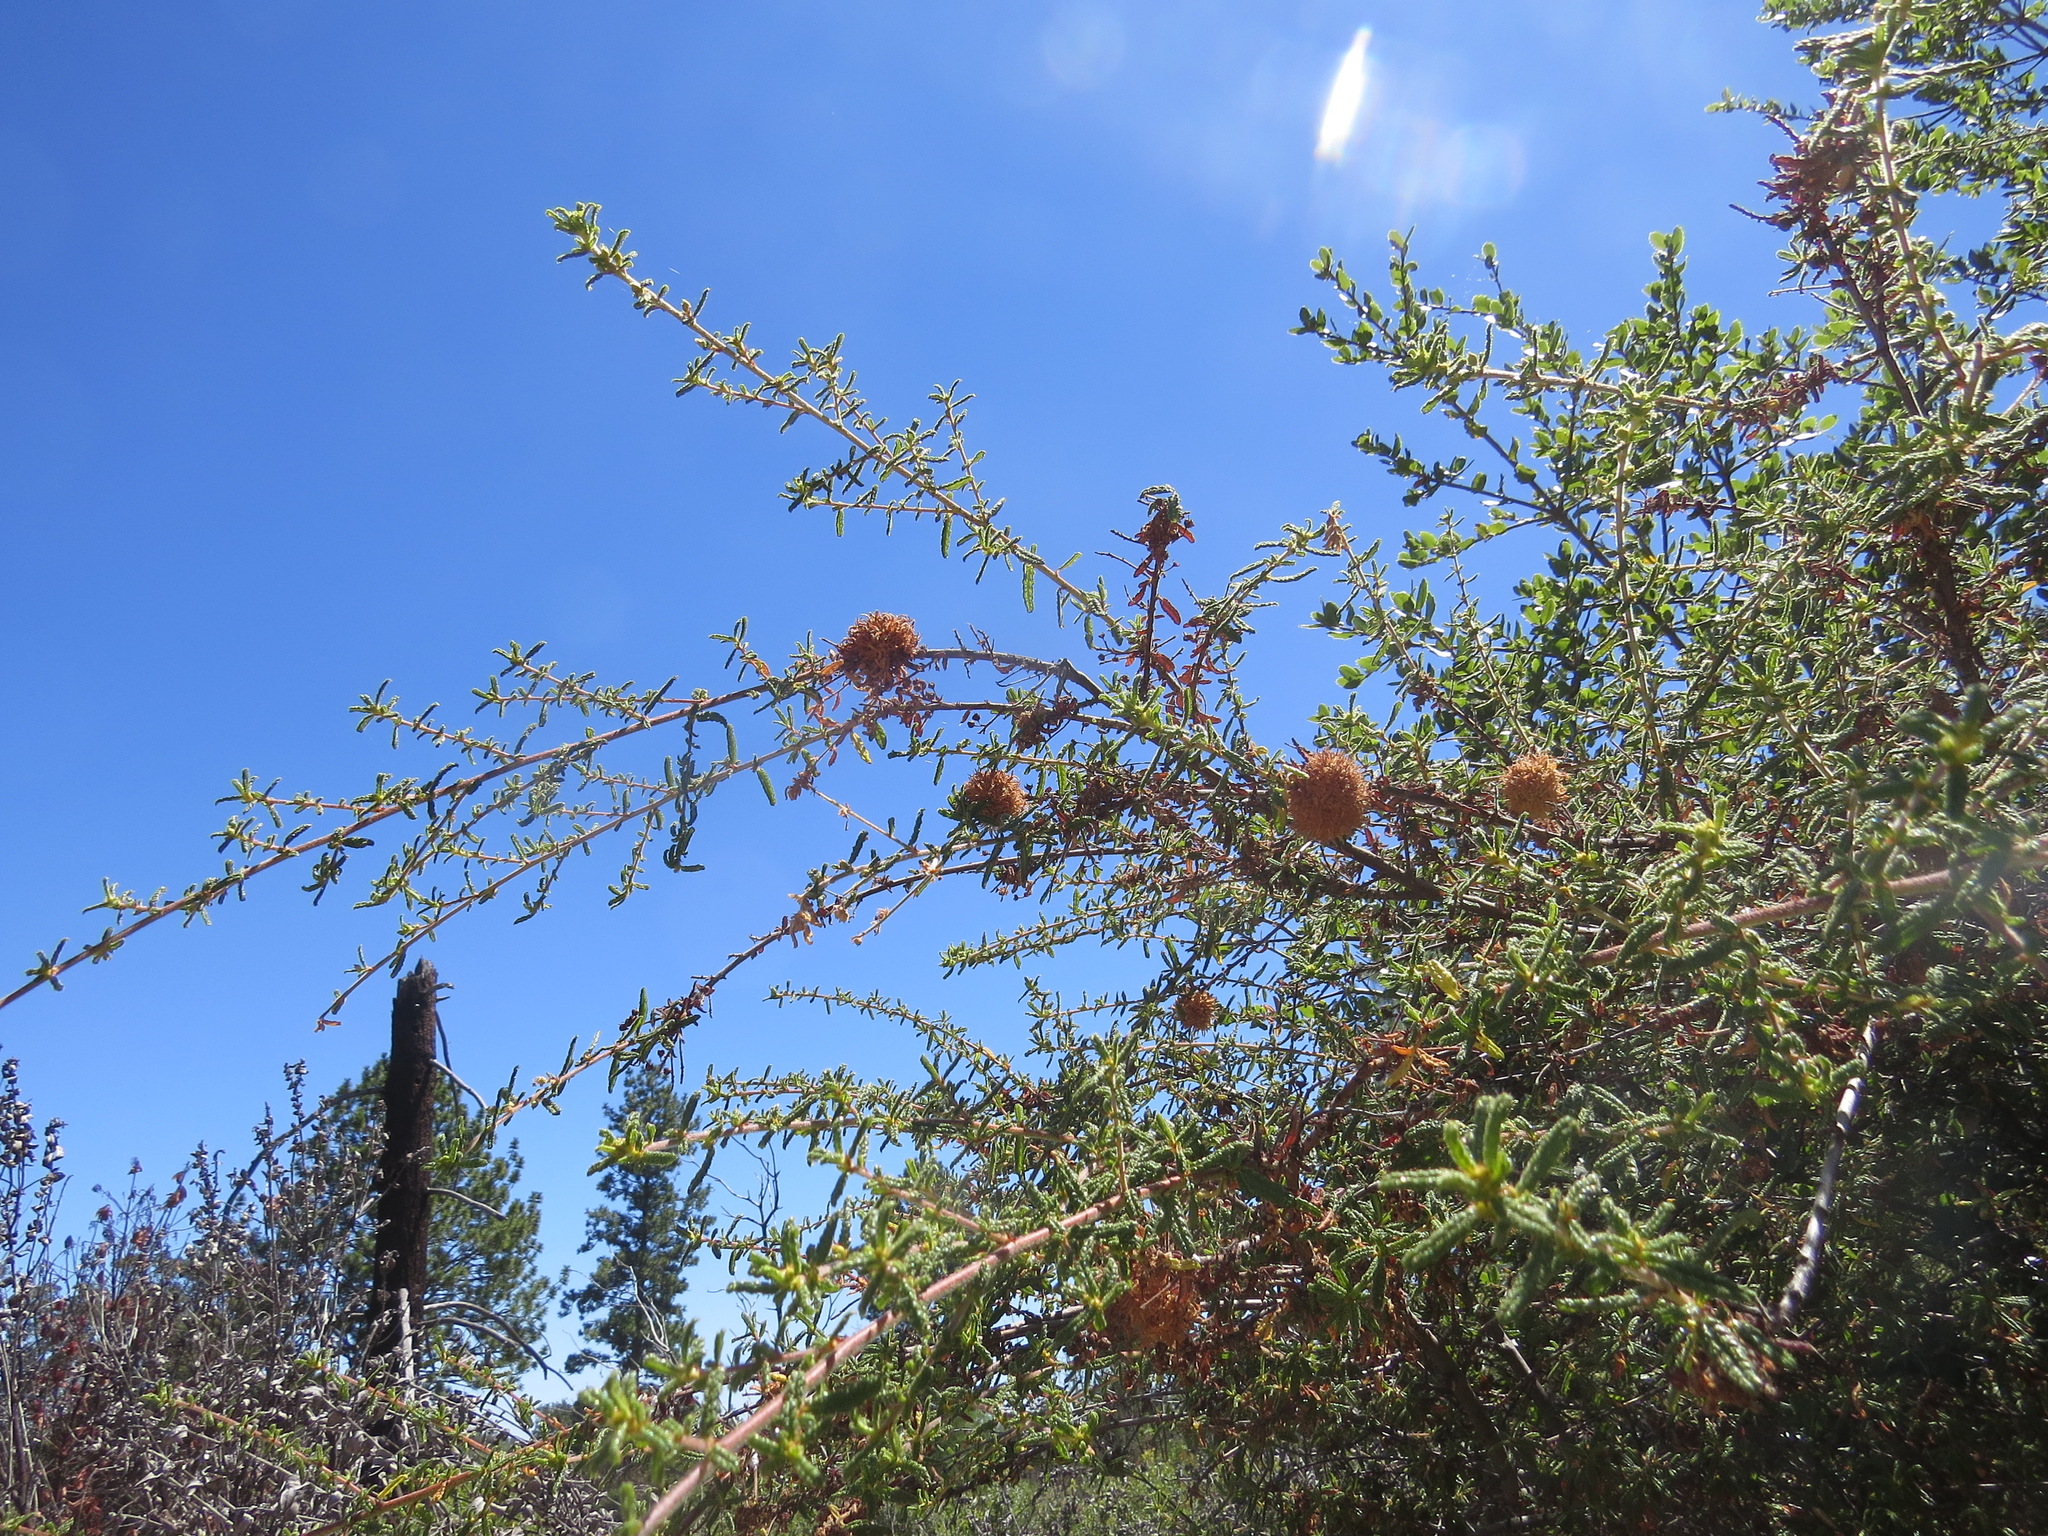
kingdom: Animalia
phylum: Arthropoda
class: Insecta
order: Diptera
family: Cecidomyiidae
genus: Asphondylia
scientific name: Asphondylia ceanothi
